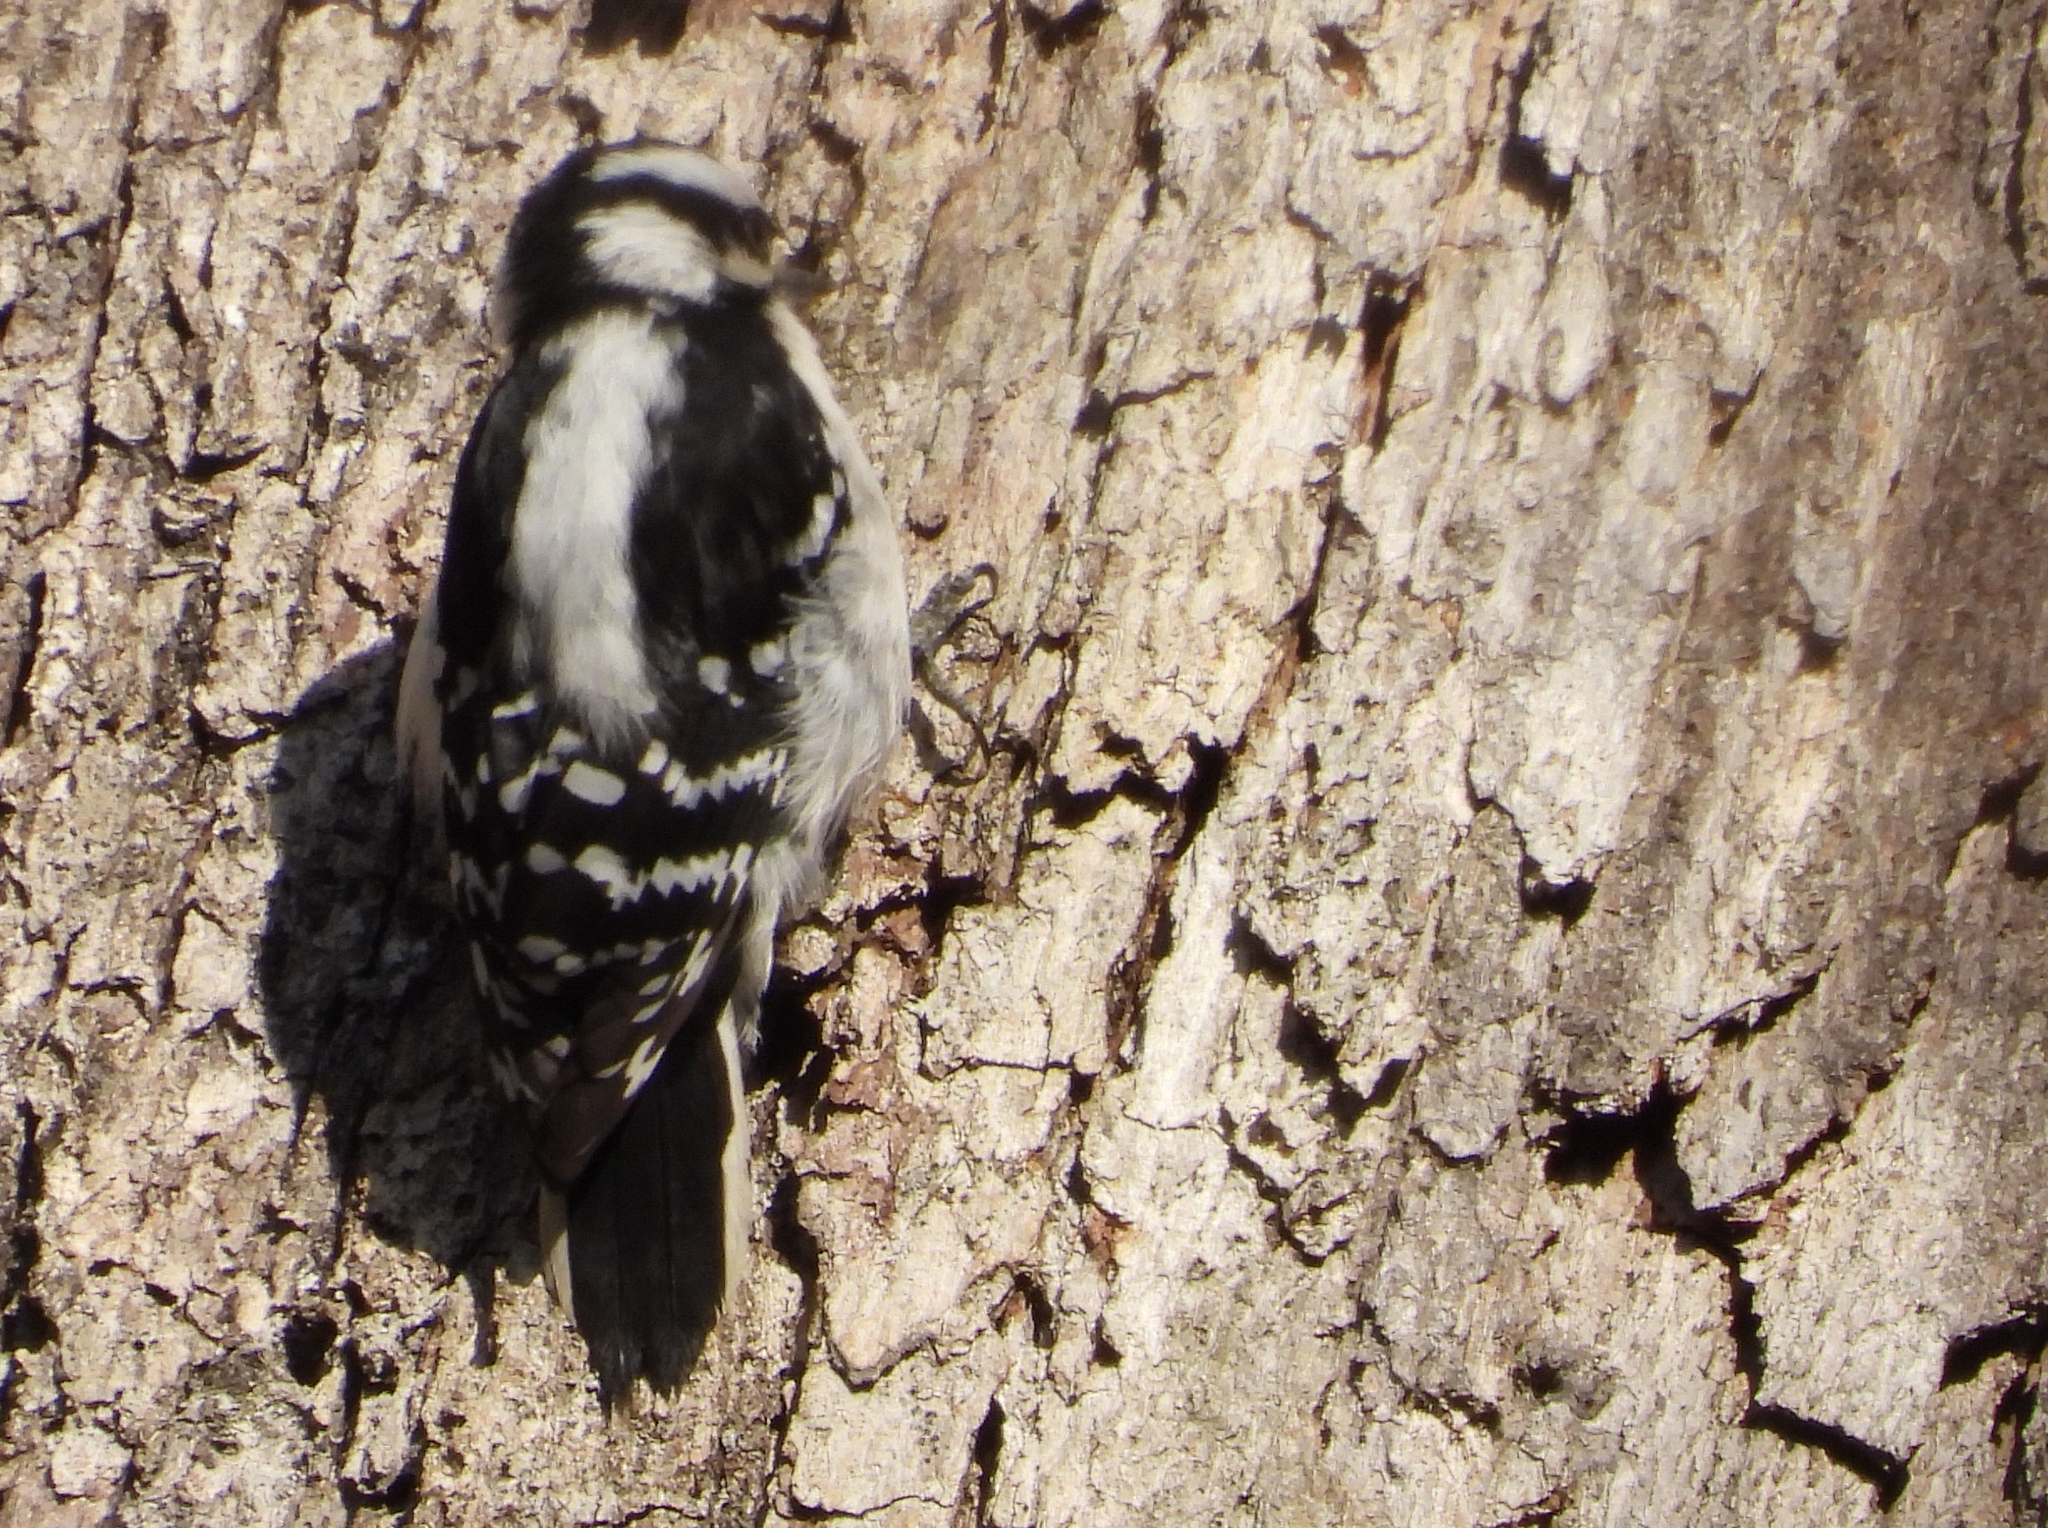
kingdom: Animalia
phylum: Chordata
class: Aves
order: Piciformes
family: Picidae
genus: Dryobates
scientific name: Dryobates pubescens
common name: Downy woodpecker
